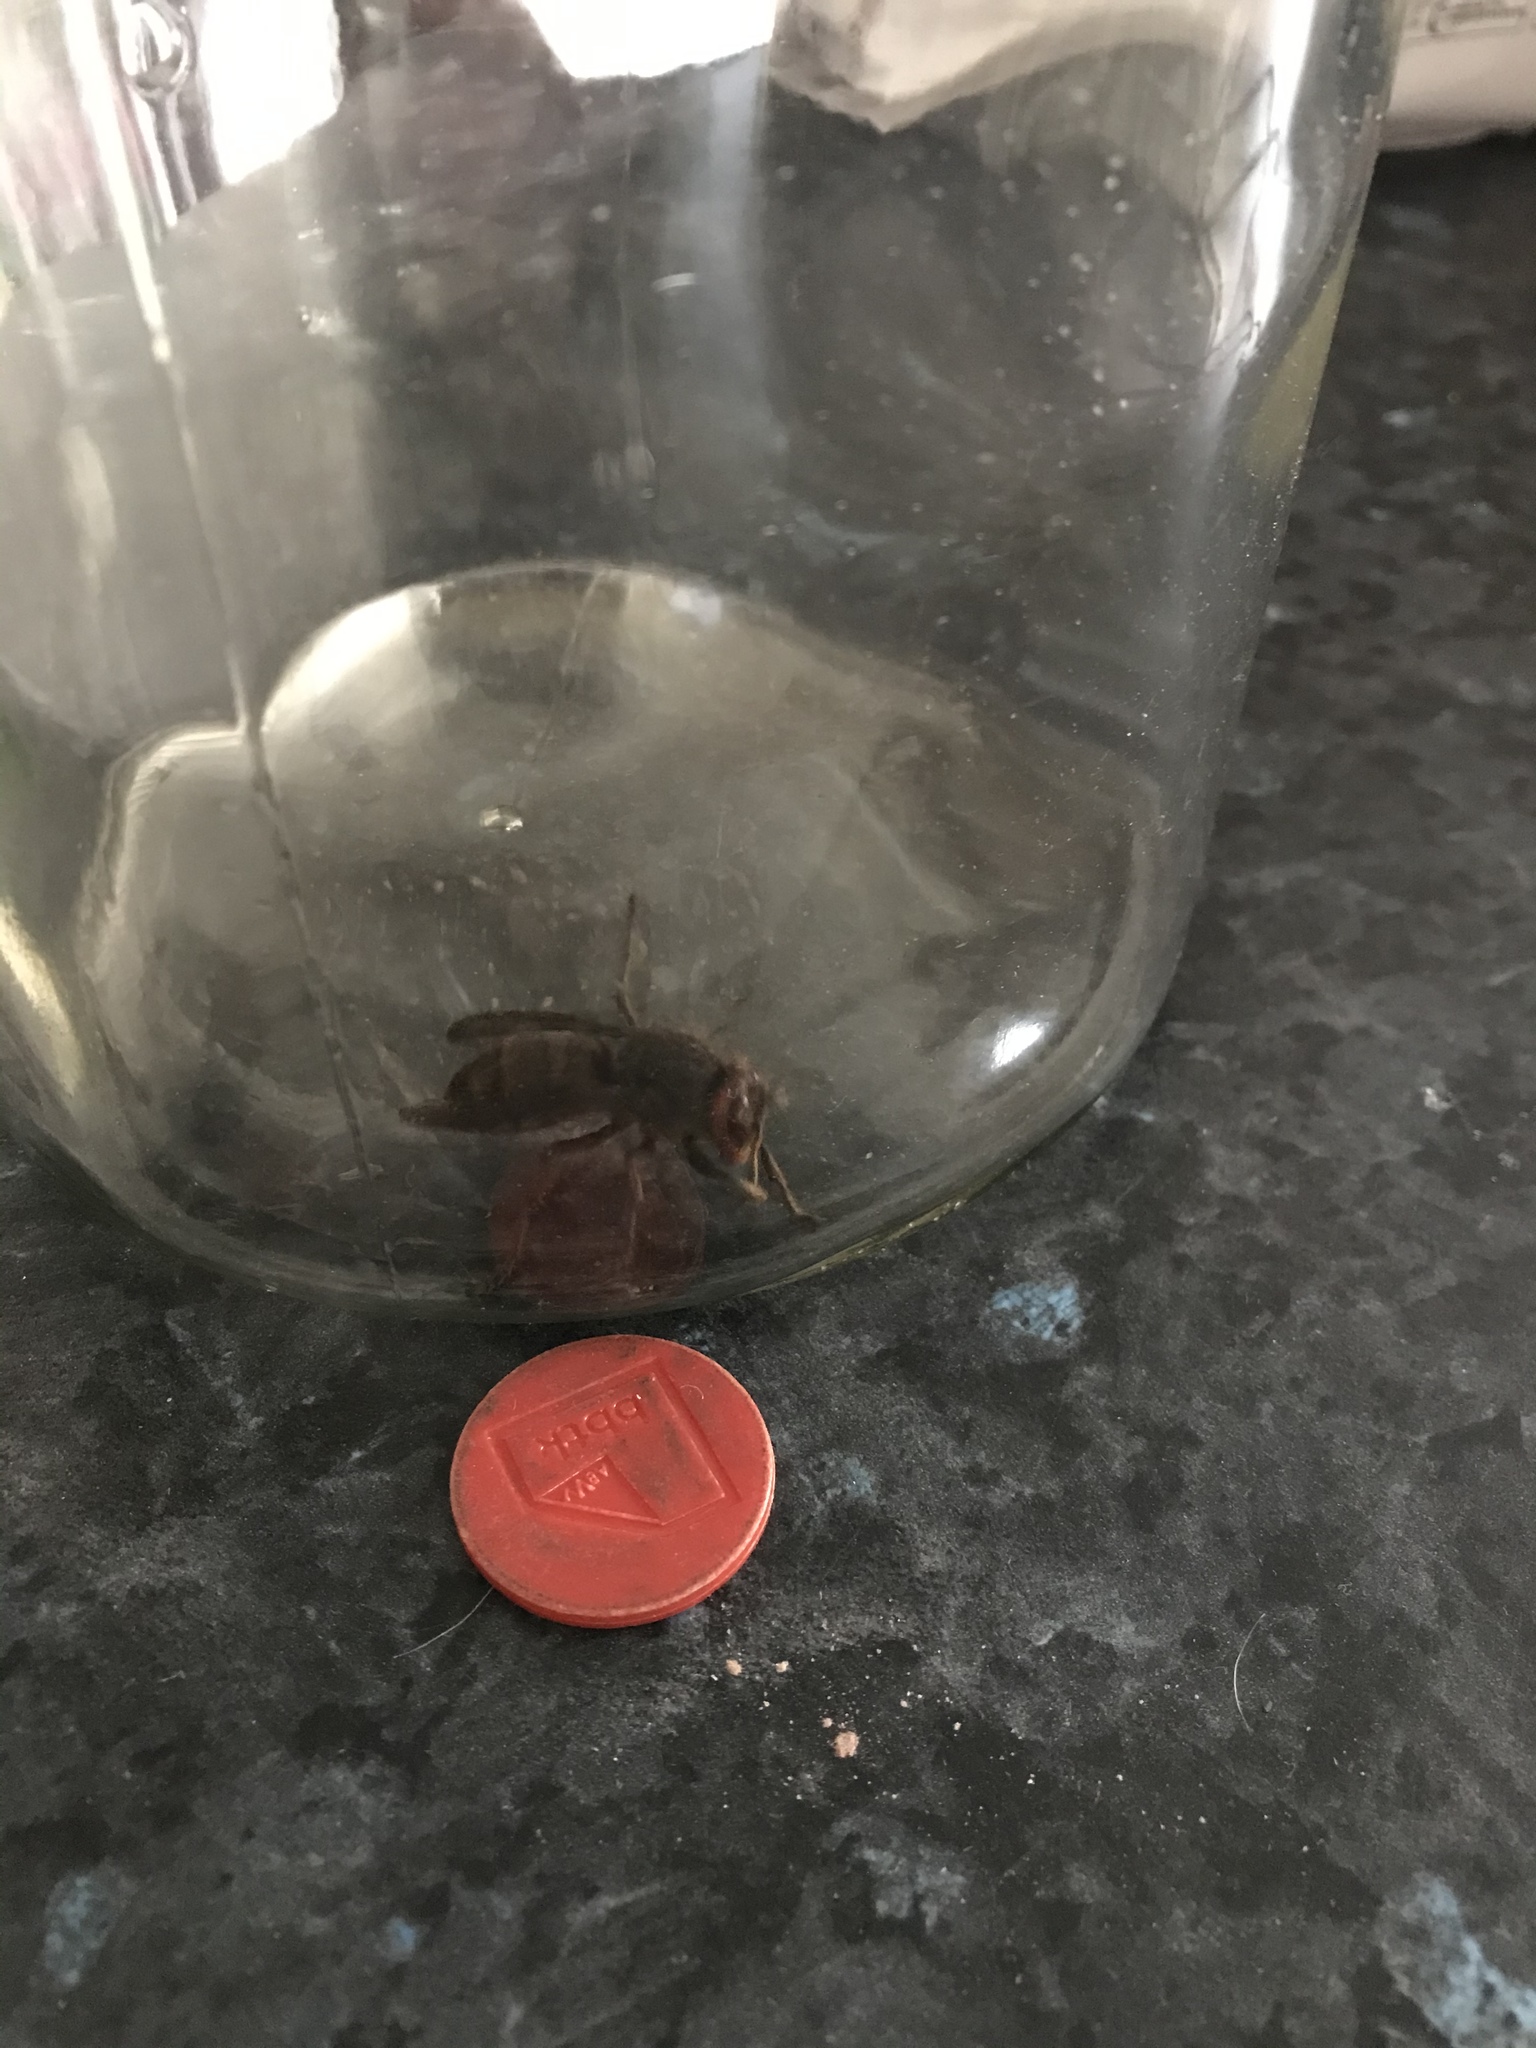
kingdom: Animalia
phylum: Arthropoda
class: Insecta
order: Hymenoptera
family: Vespidae
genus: Vespa
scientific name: Vespa crabro
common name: Hornet
